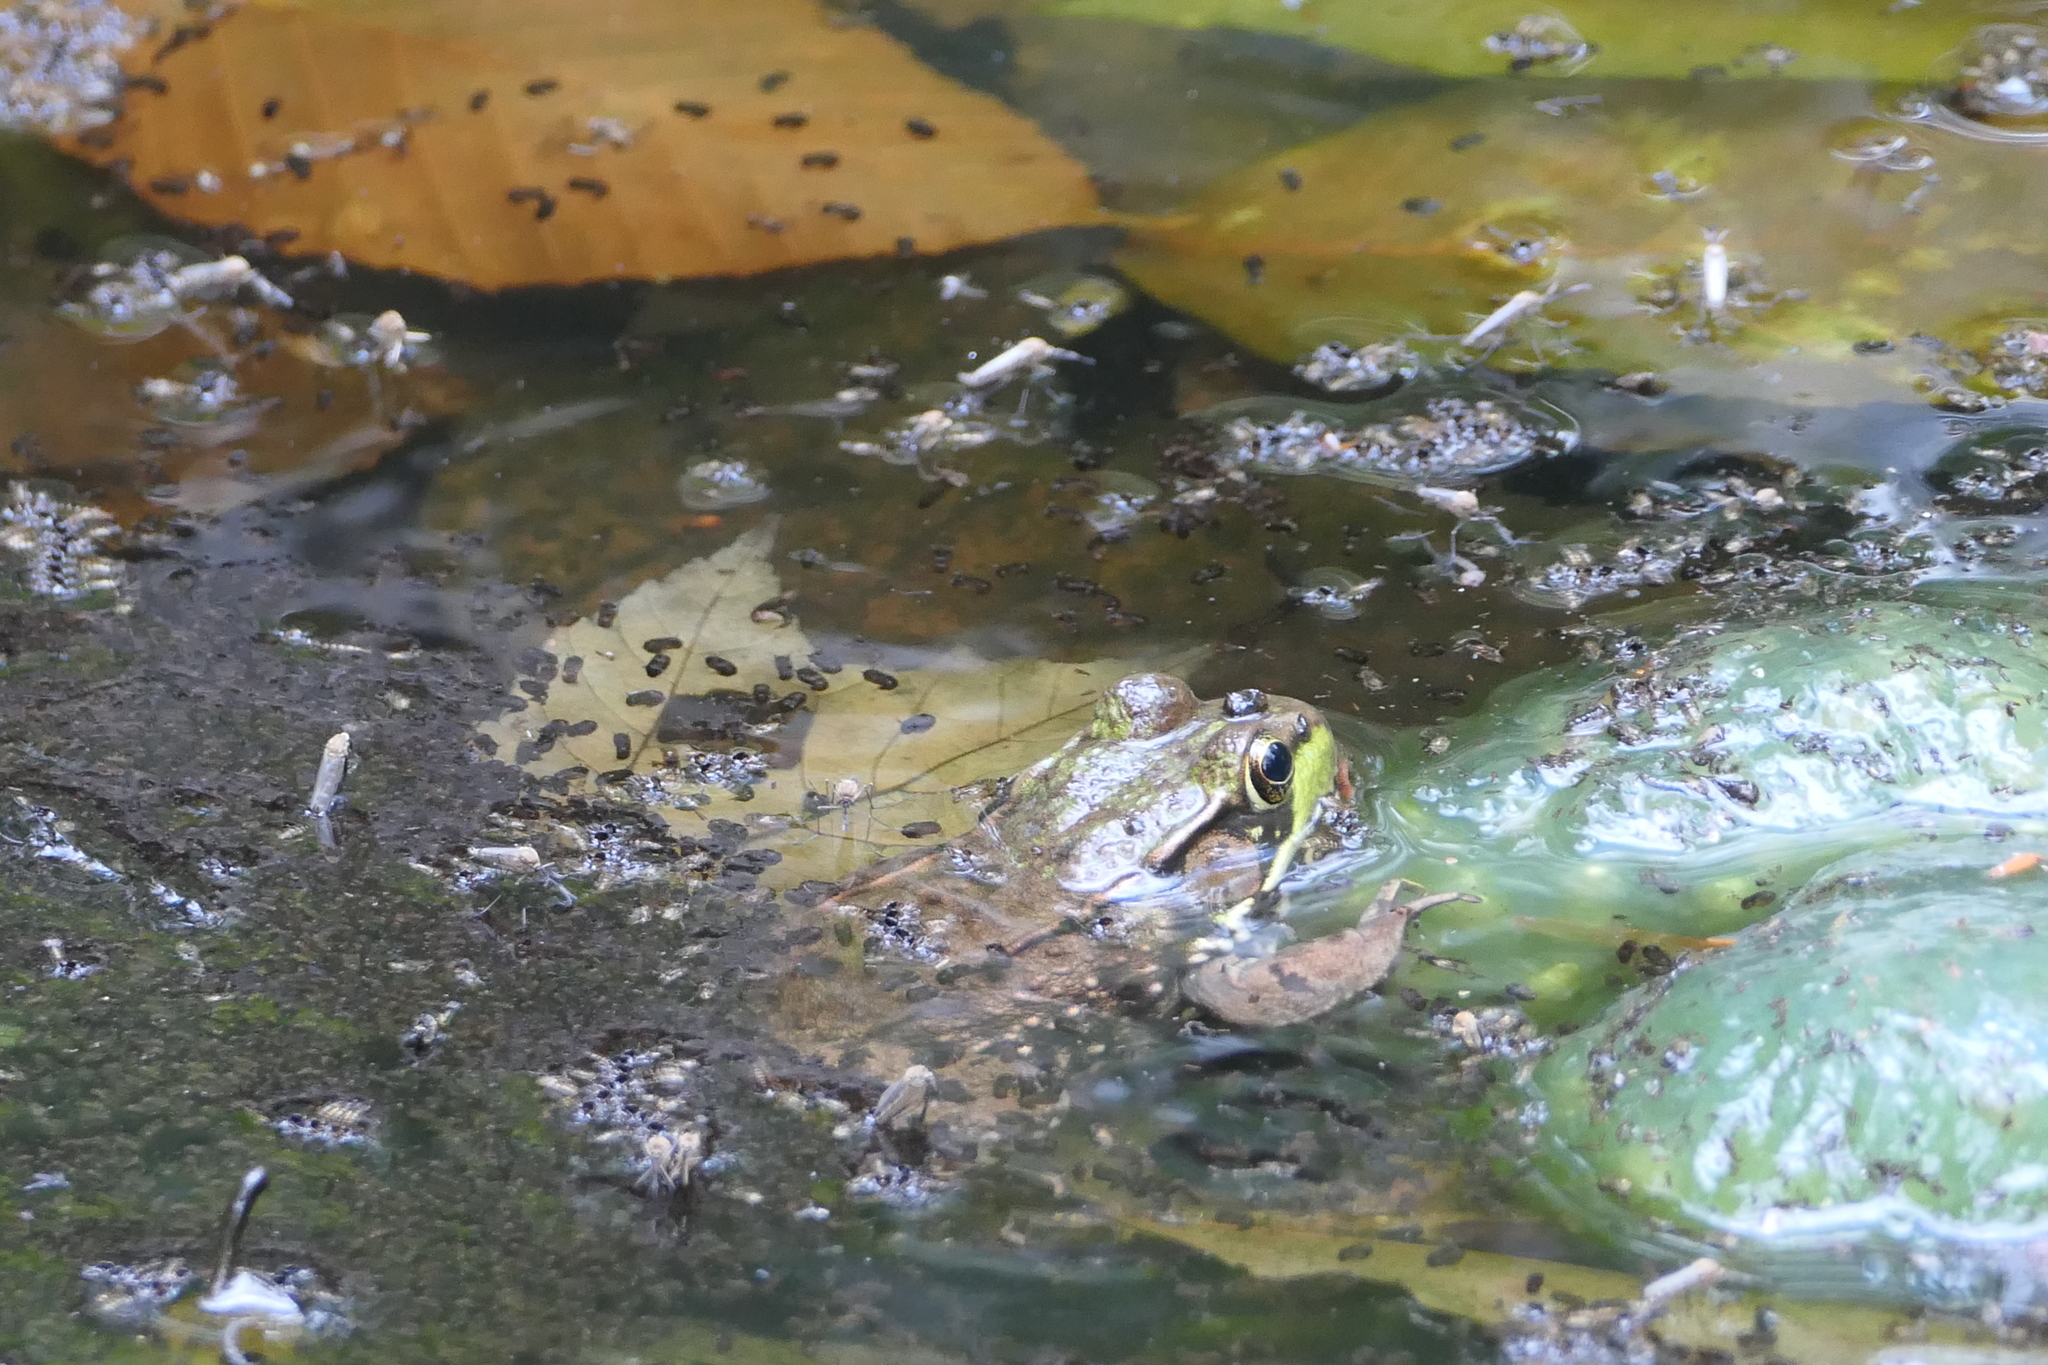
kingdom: Animalia
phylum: Chordata
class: Amphibia
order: Anura
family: Ranidae
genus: Lithobates
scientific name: Lithobates clamitans
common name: Green frog
